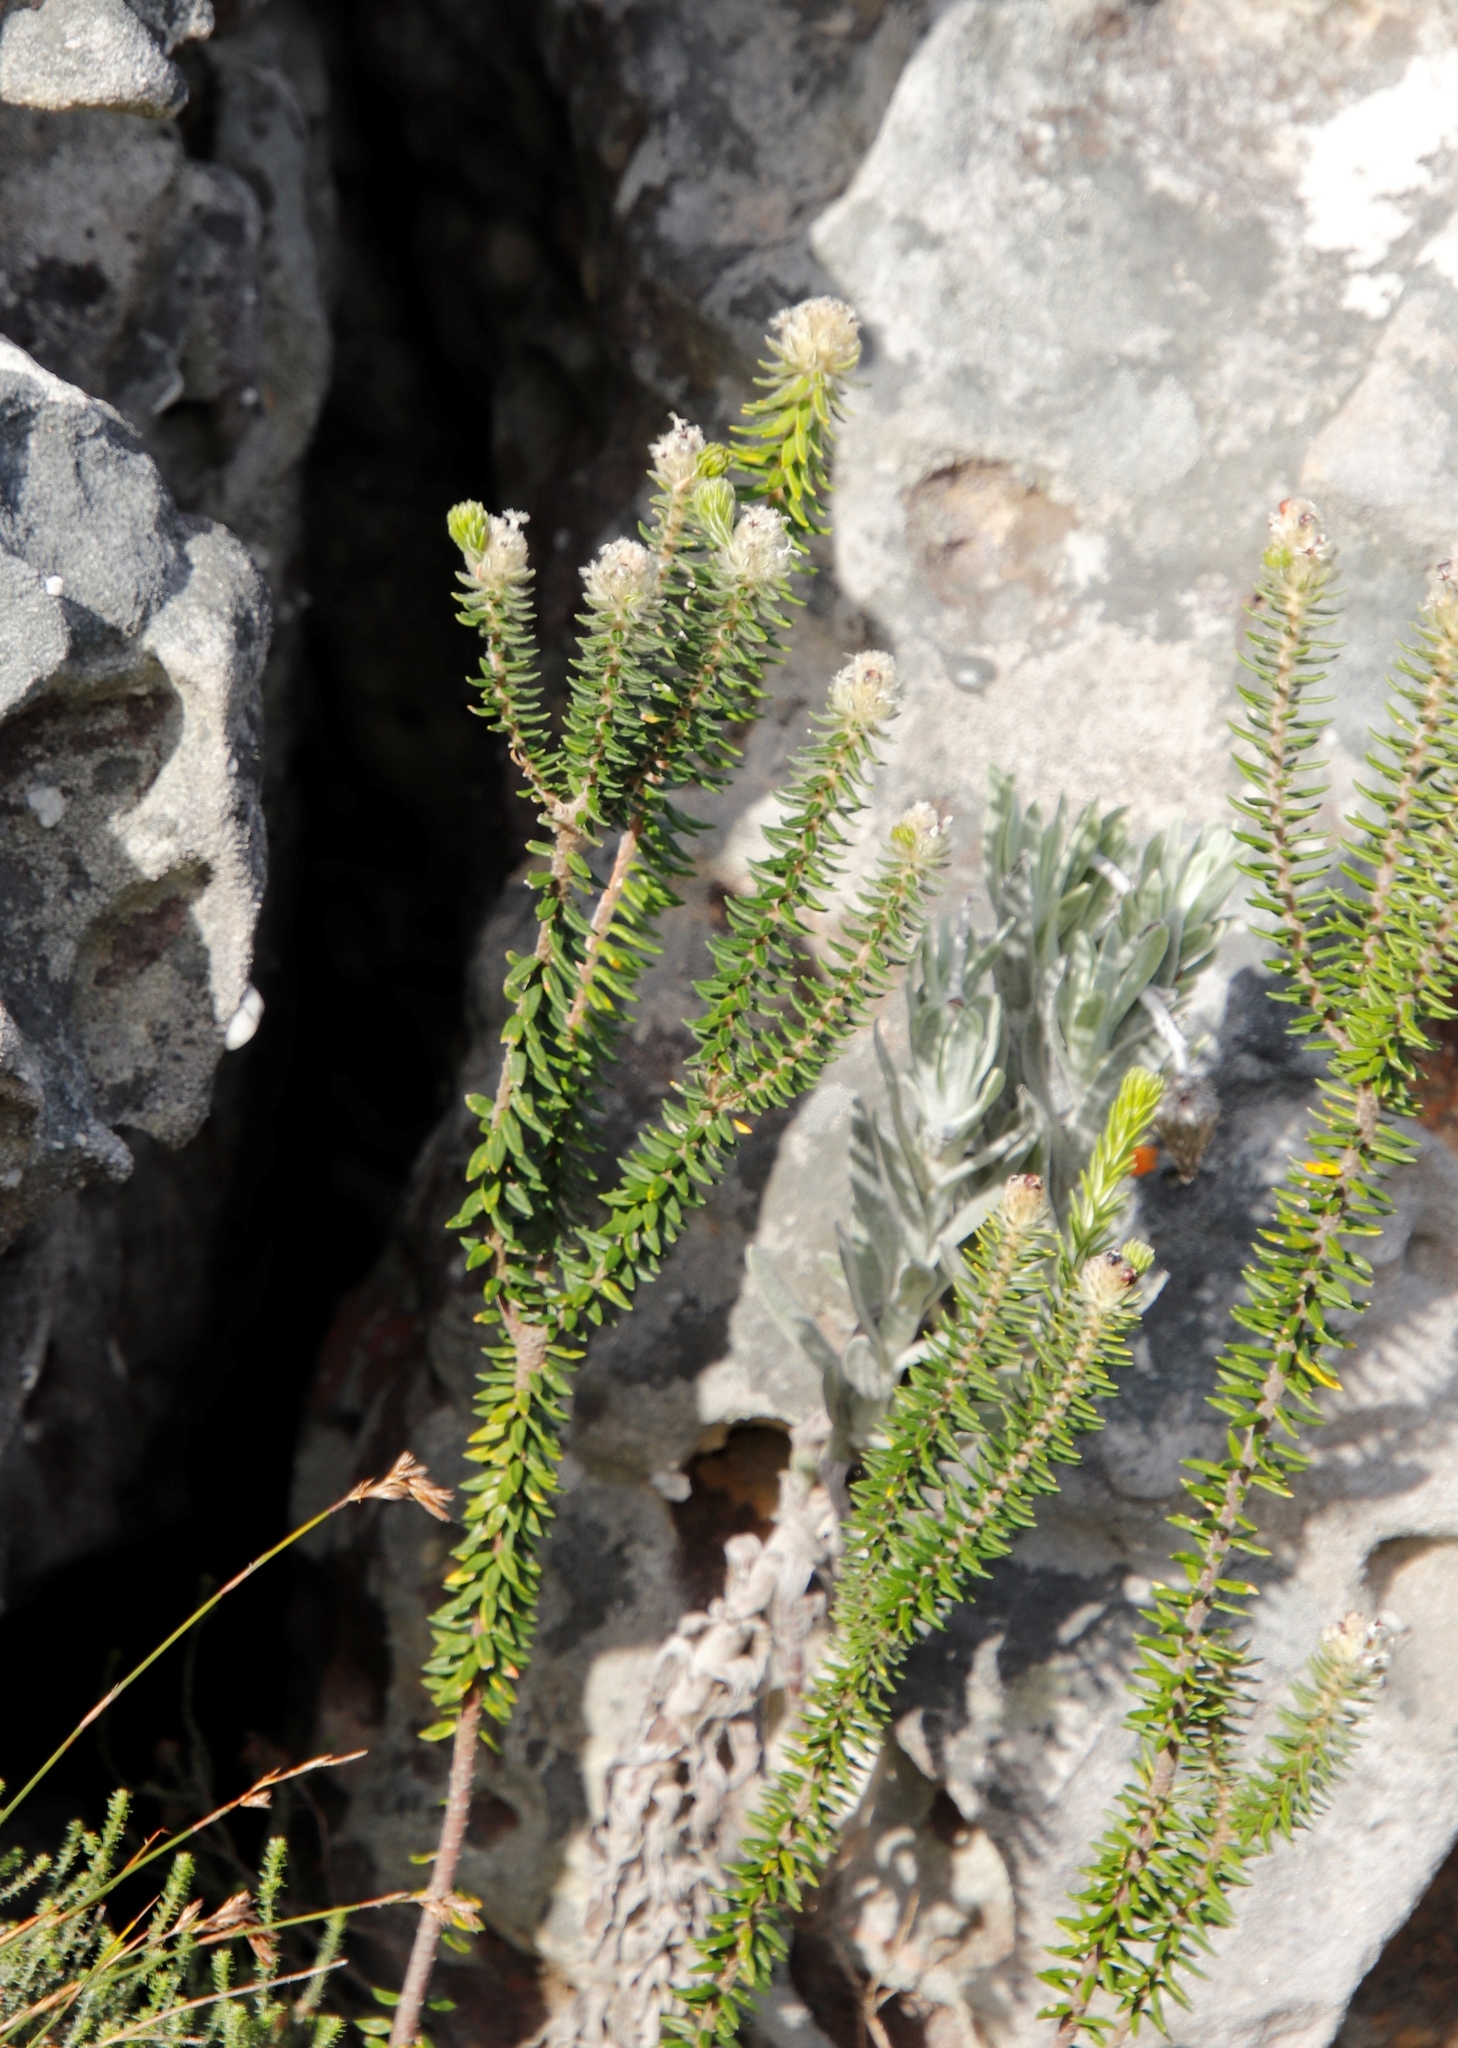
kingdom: Plantae
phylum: Tracheophyta
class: Magnoliopsida
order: Rosales
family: Rhamnaceae
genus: Phylica
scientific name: Phylica strigosa
